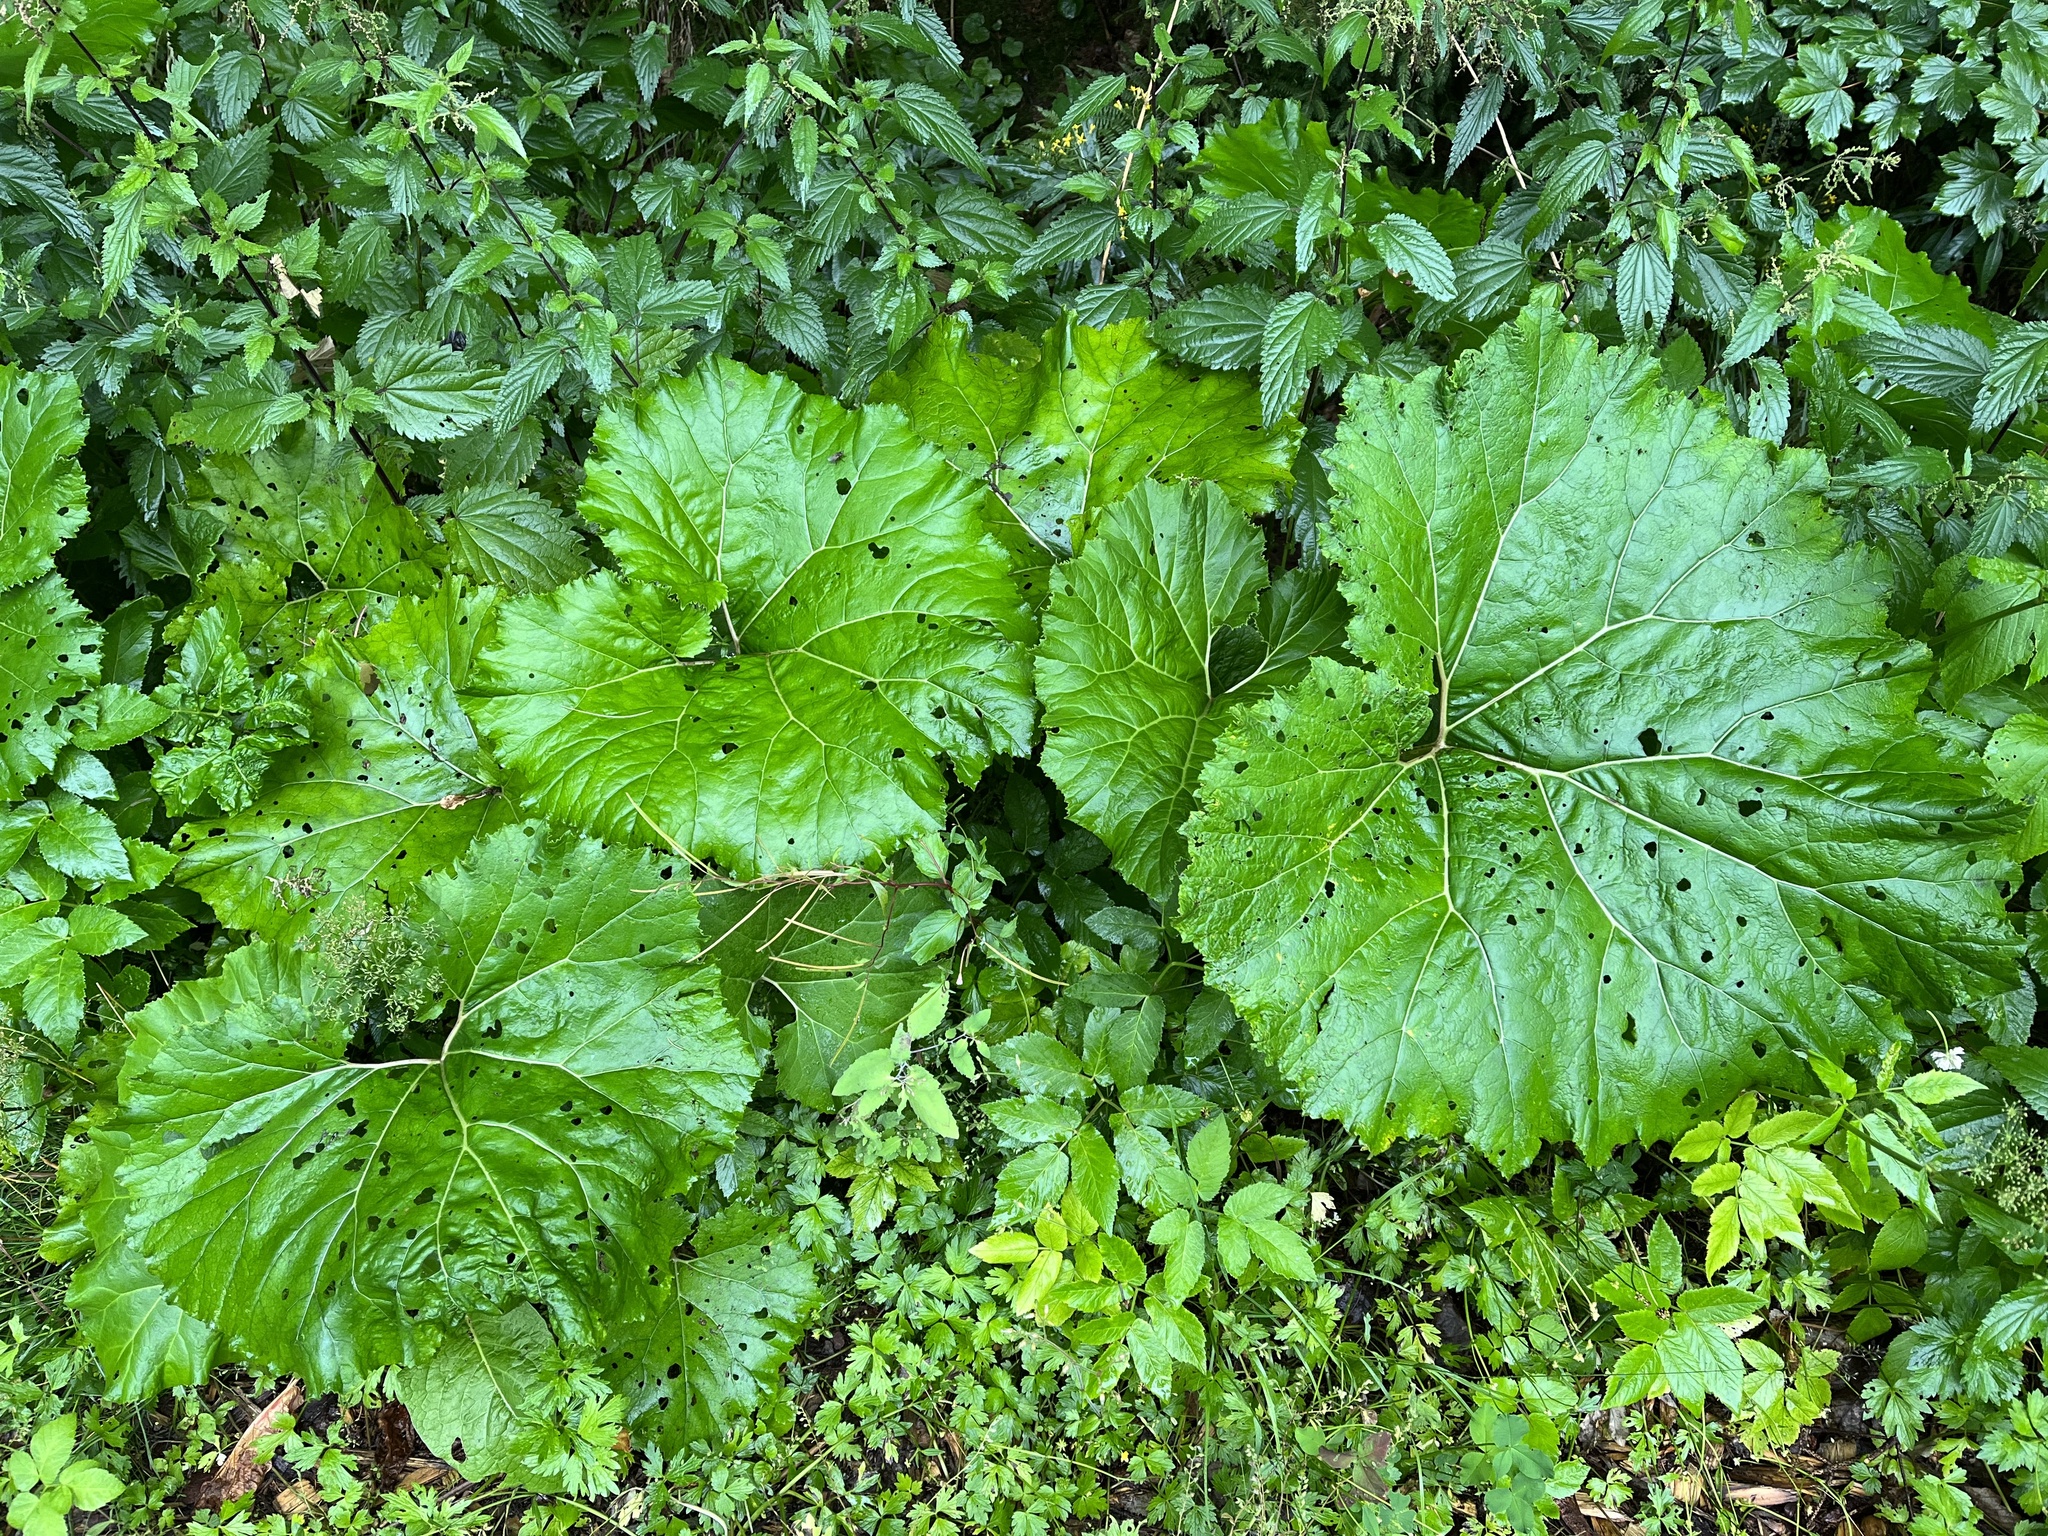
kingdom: Plantae
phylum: Tracheophyta
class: Magnoliopsida
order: Asterales
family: Asteraceae
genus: Petasites
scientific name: Petasites hybridus
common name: Butterbur
